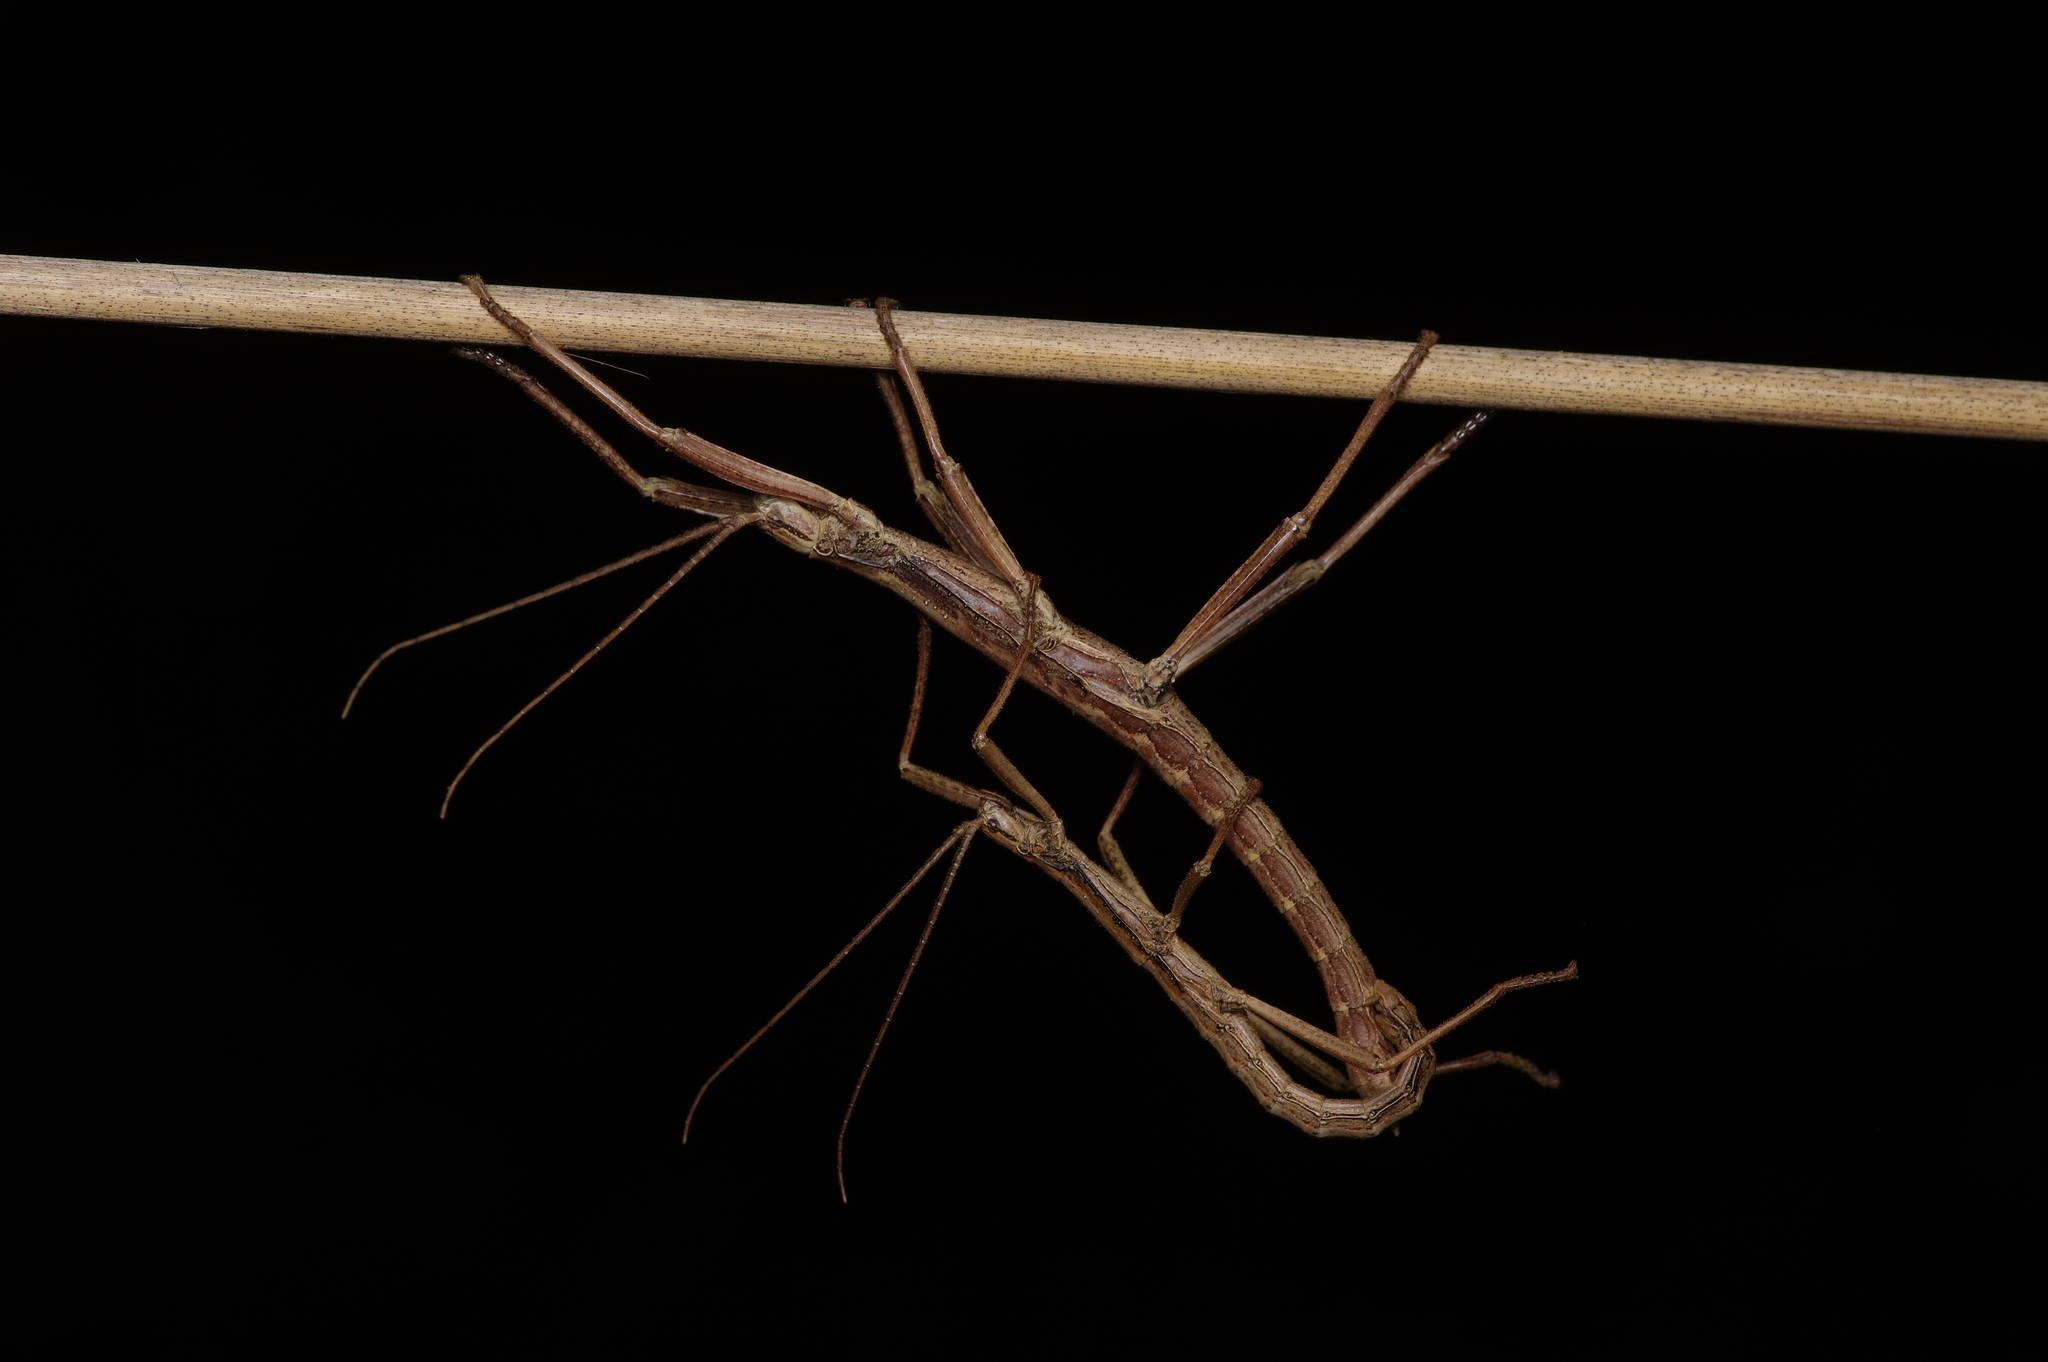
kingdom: Animalia
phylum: Arthropoda
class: Insecta
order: Phasmida
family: Pseudophasmatidae
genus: Anisomorpha
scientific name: Anisomorpha ferruginea
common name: Dark walkingstick
